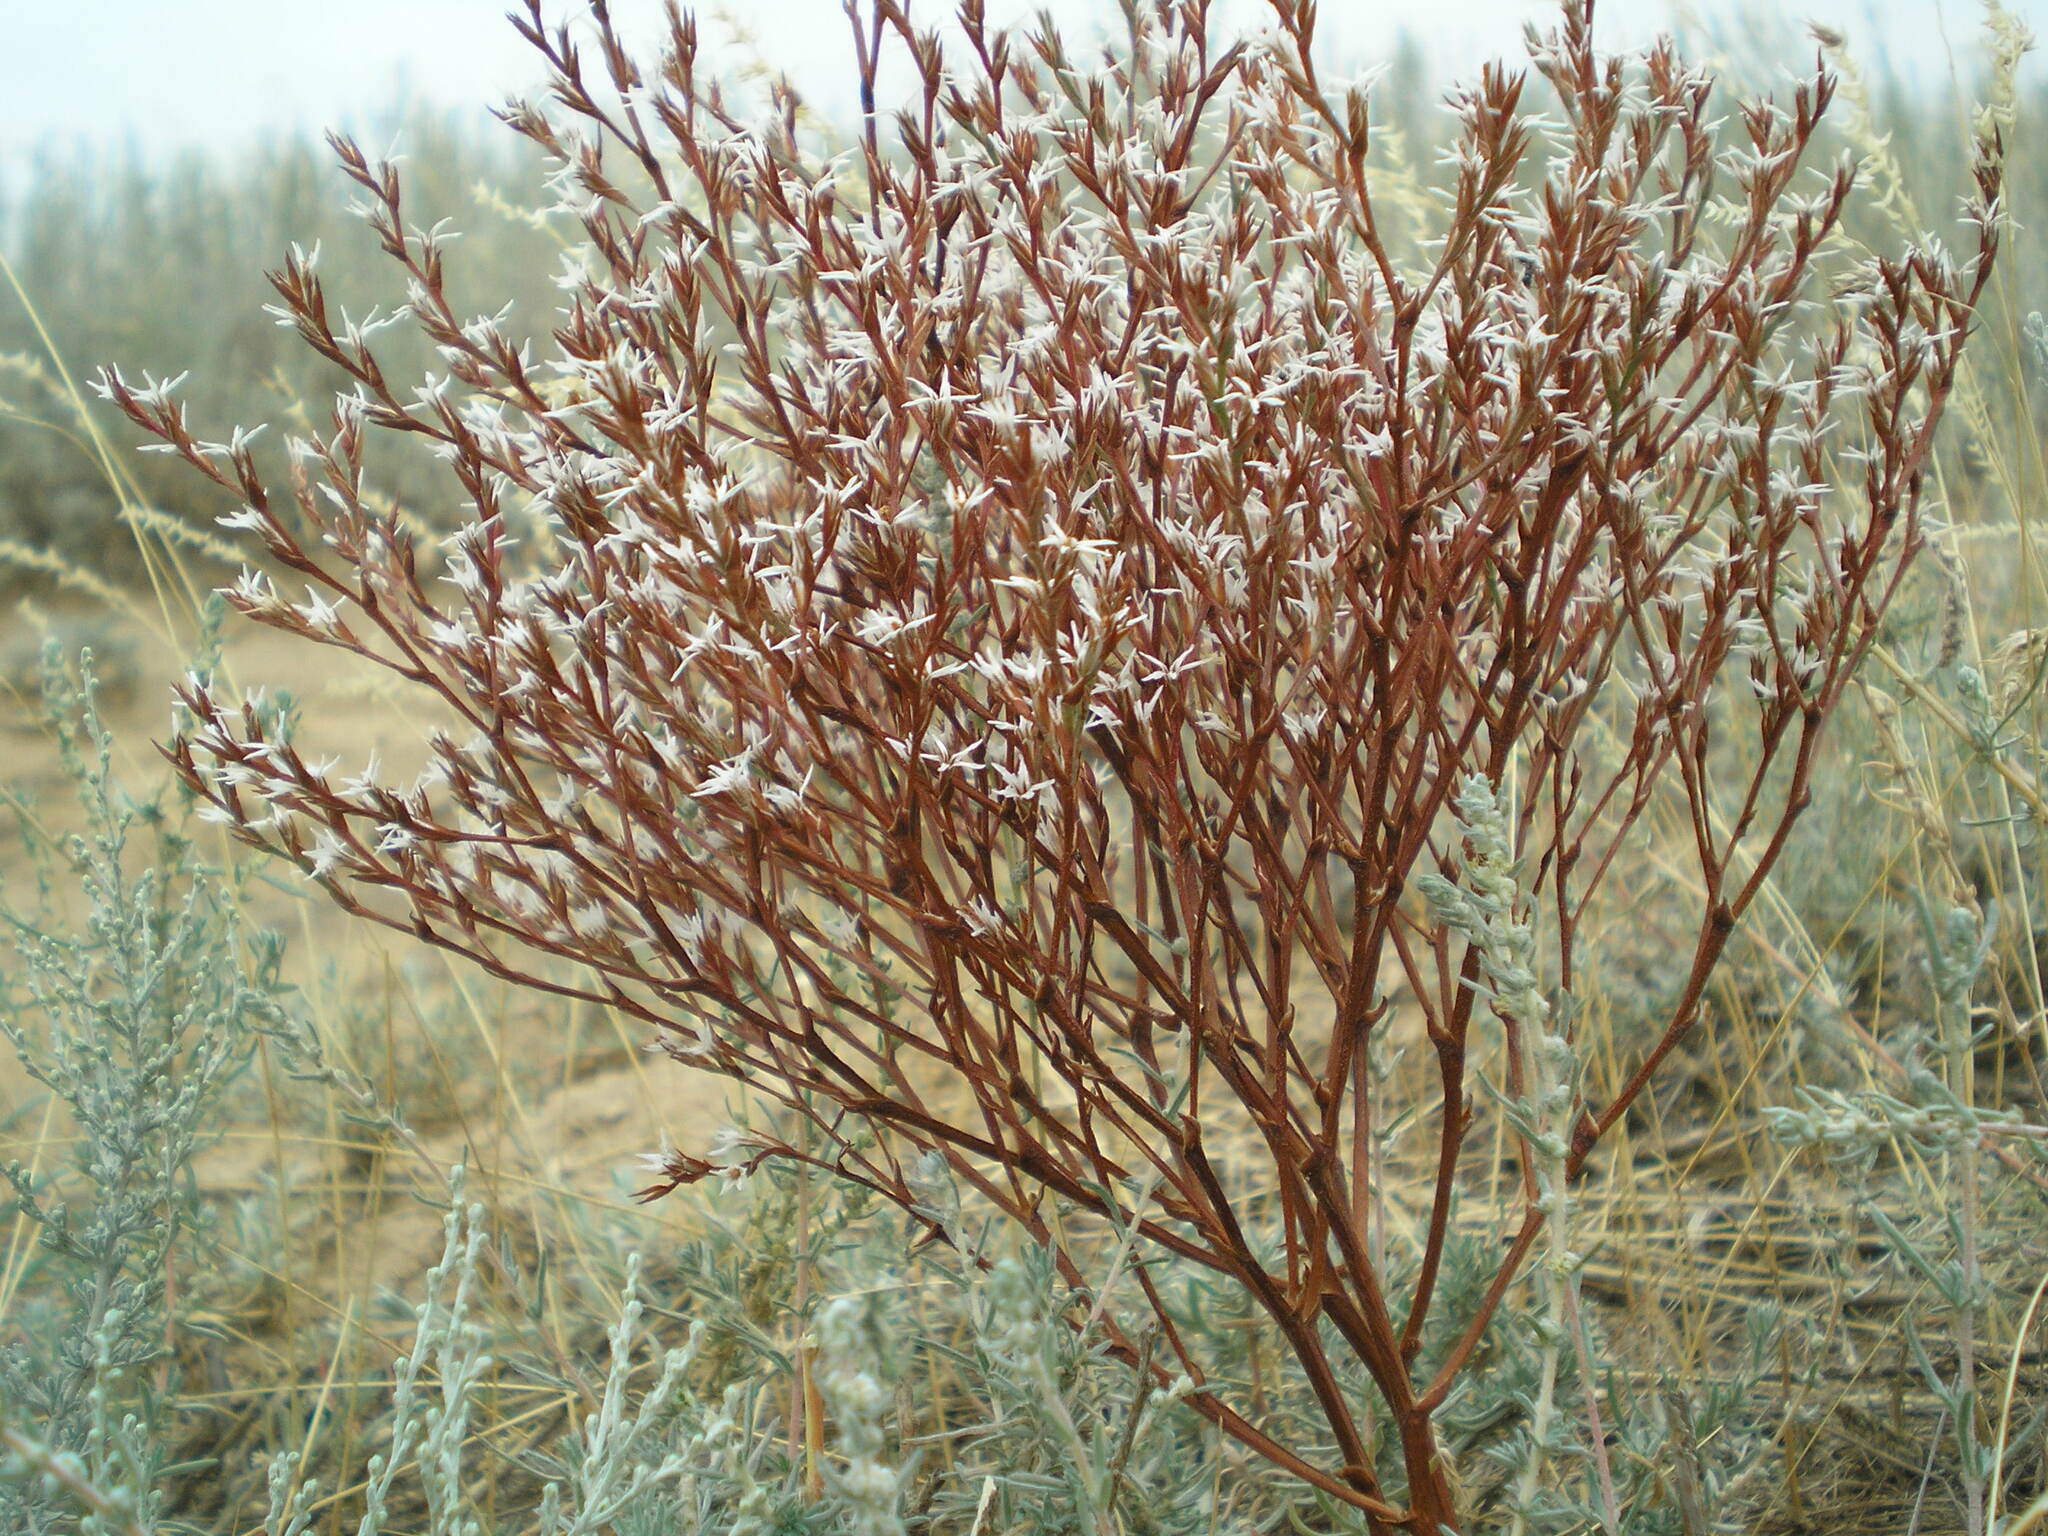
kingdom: Plantae
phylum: Tracheophyta
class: Magnoliopsida
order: Caryophyllales
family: Plumbaginaceae
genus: Goniolimon
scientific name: Goniolimon tataricum
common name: Statice
